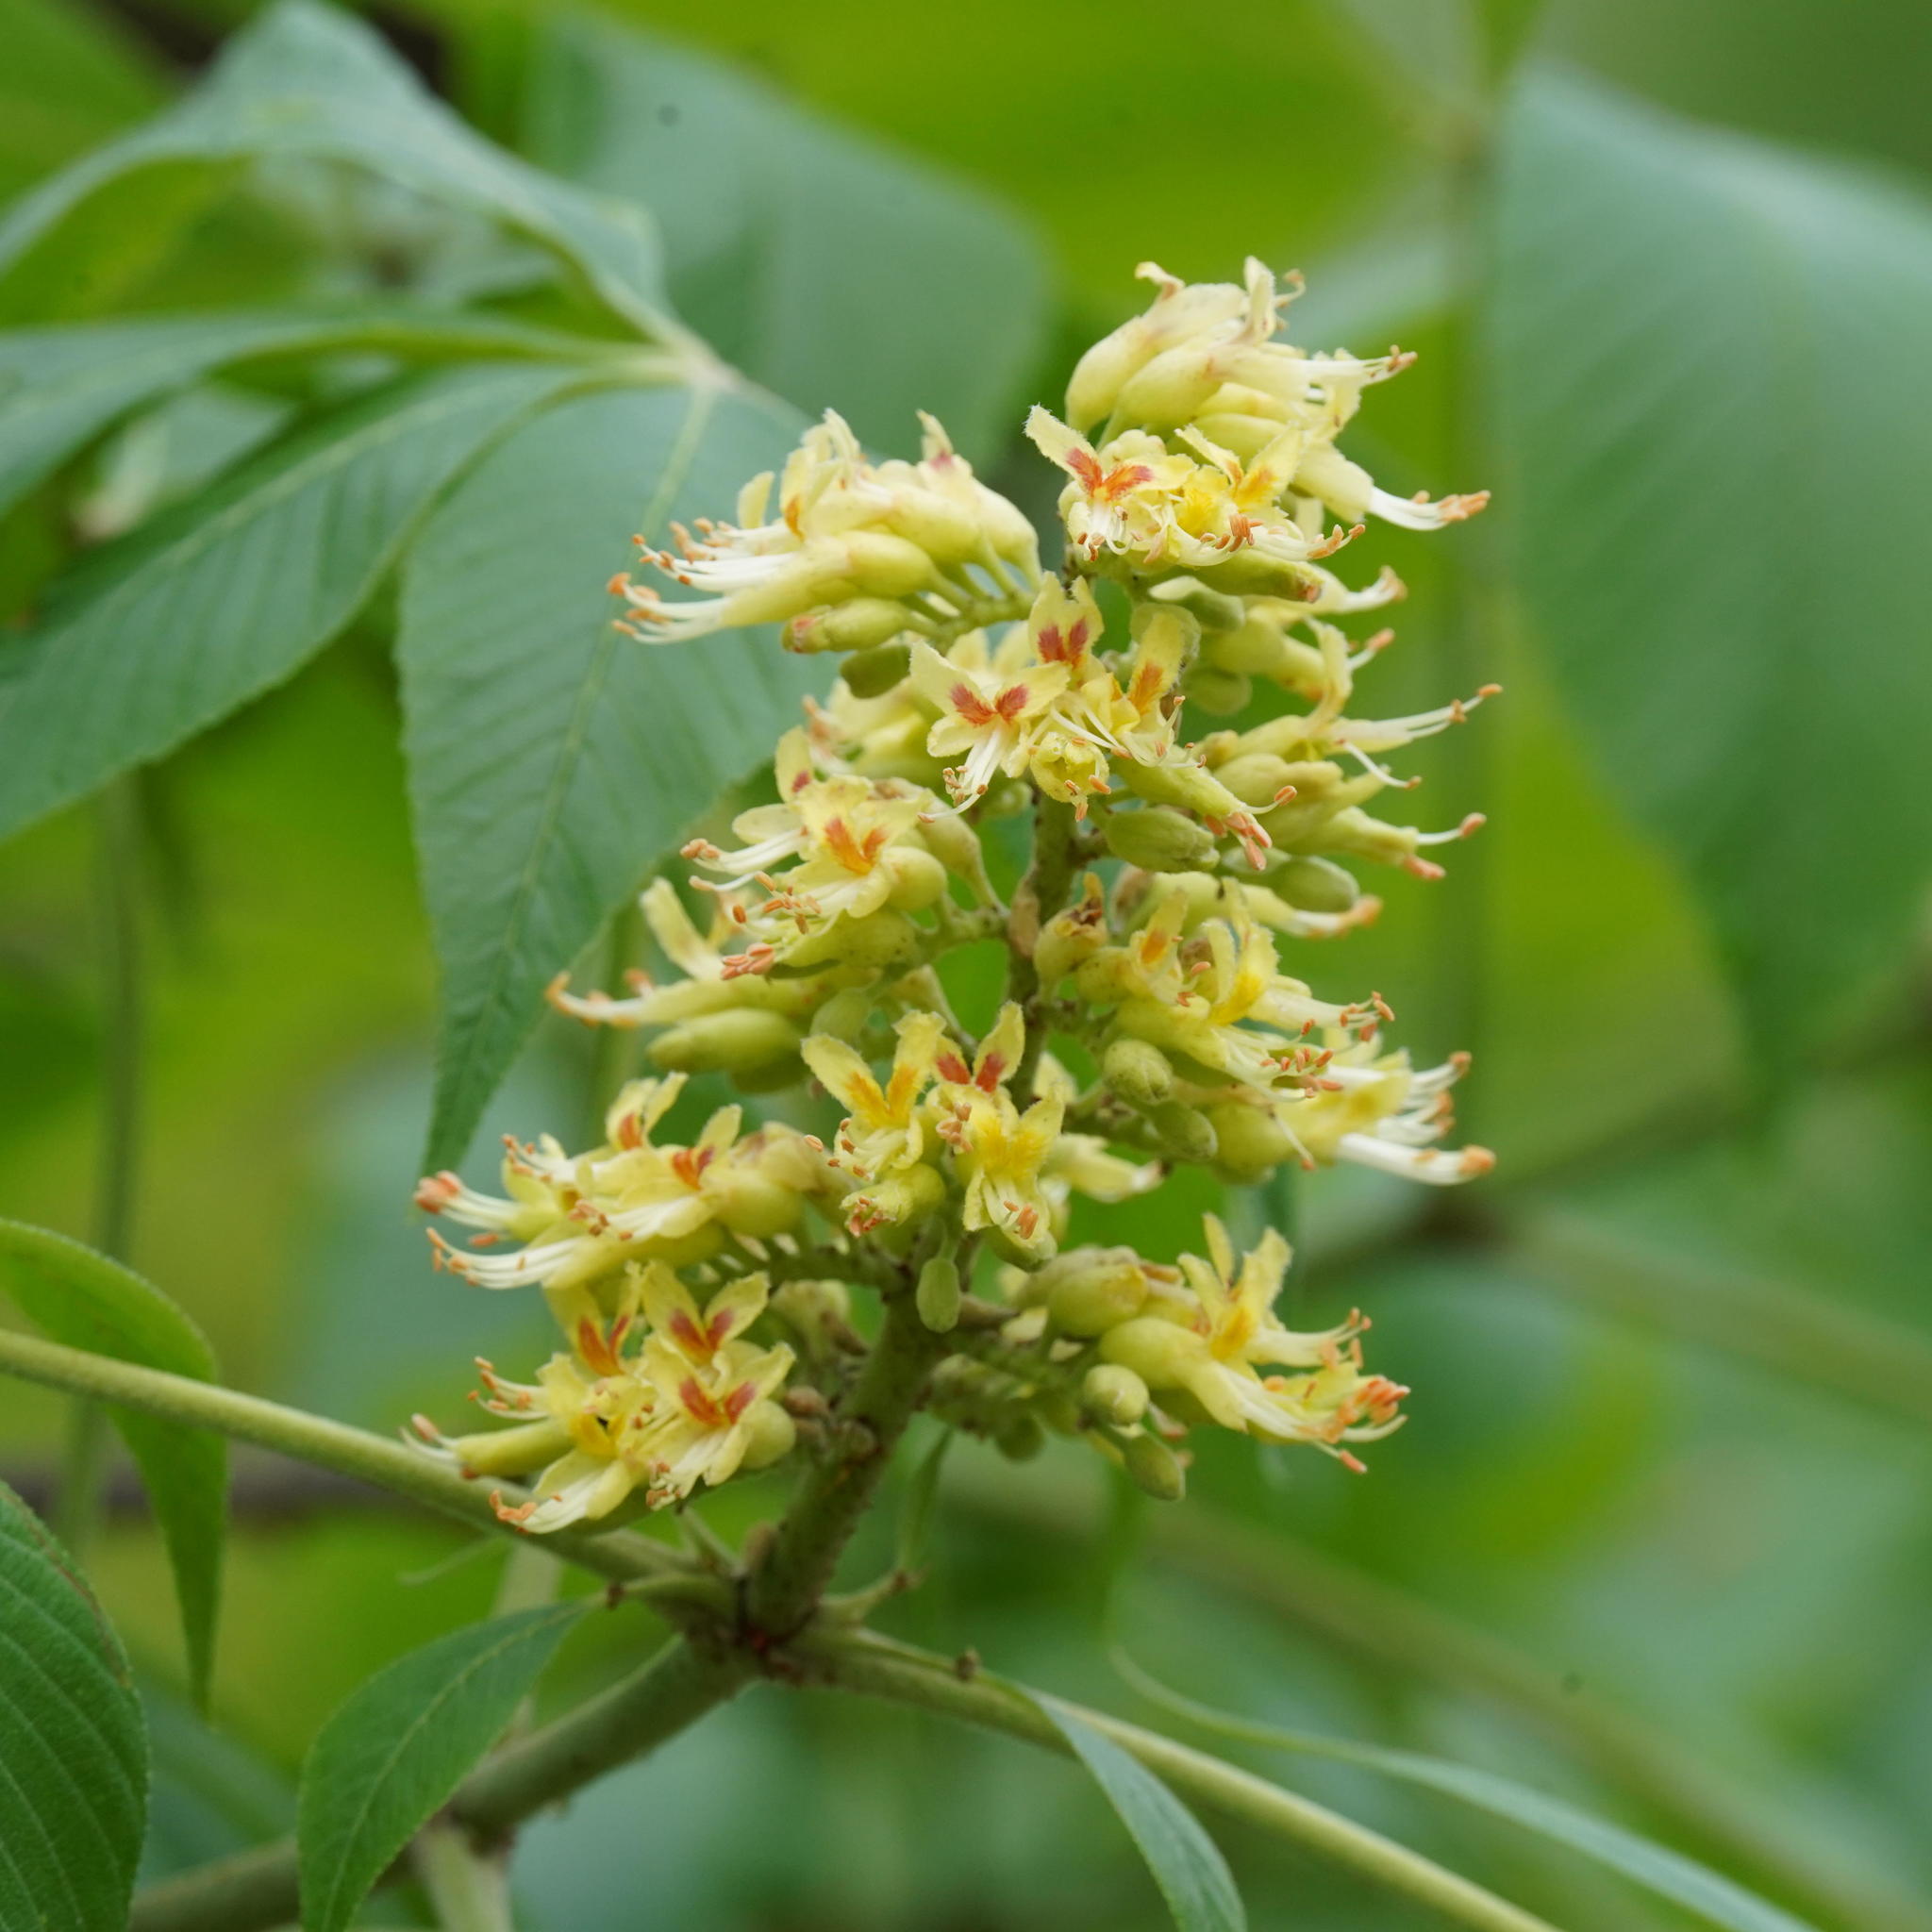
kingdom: Plantae
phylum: Tracheophyta
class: Magnoliopsida
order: Sapindales
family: Sapindaceae
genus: Aesculus
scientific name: Aesculus glabra
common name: Ohio buckeye
